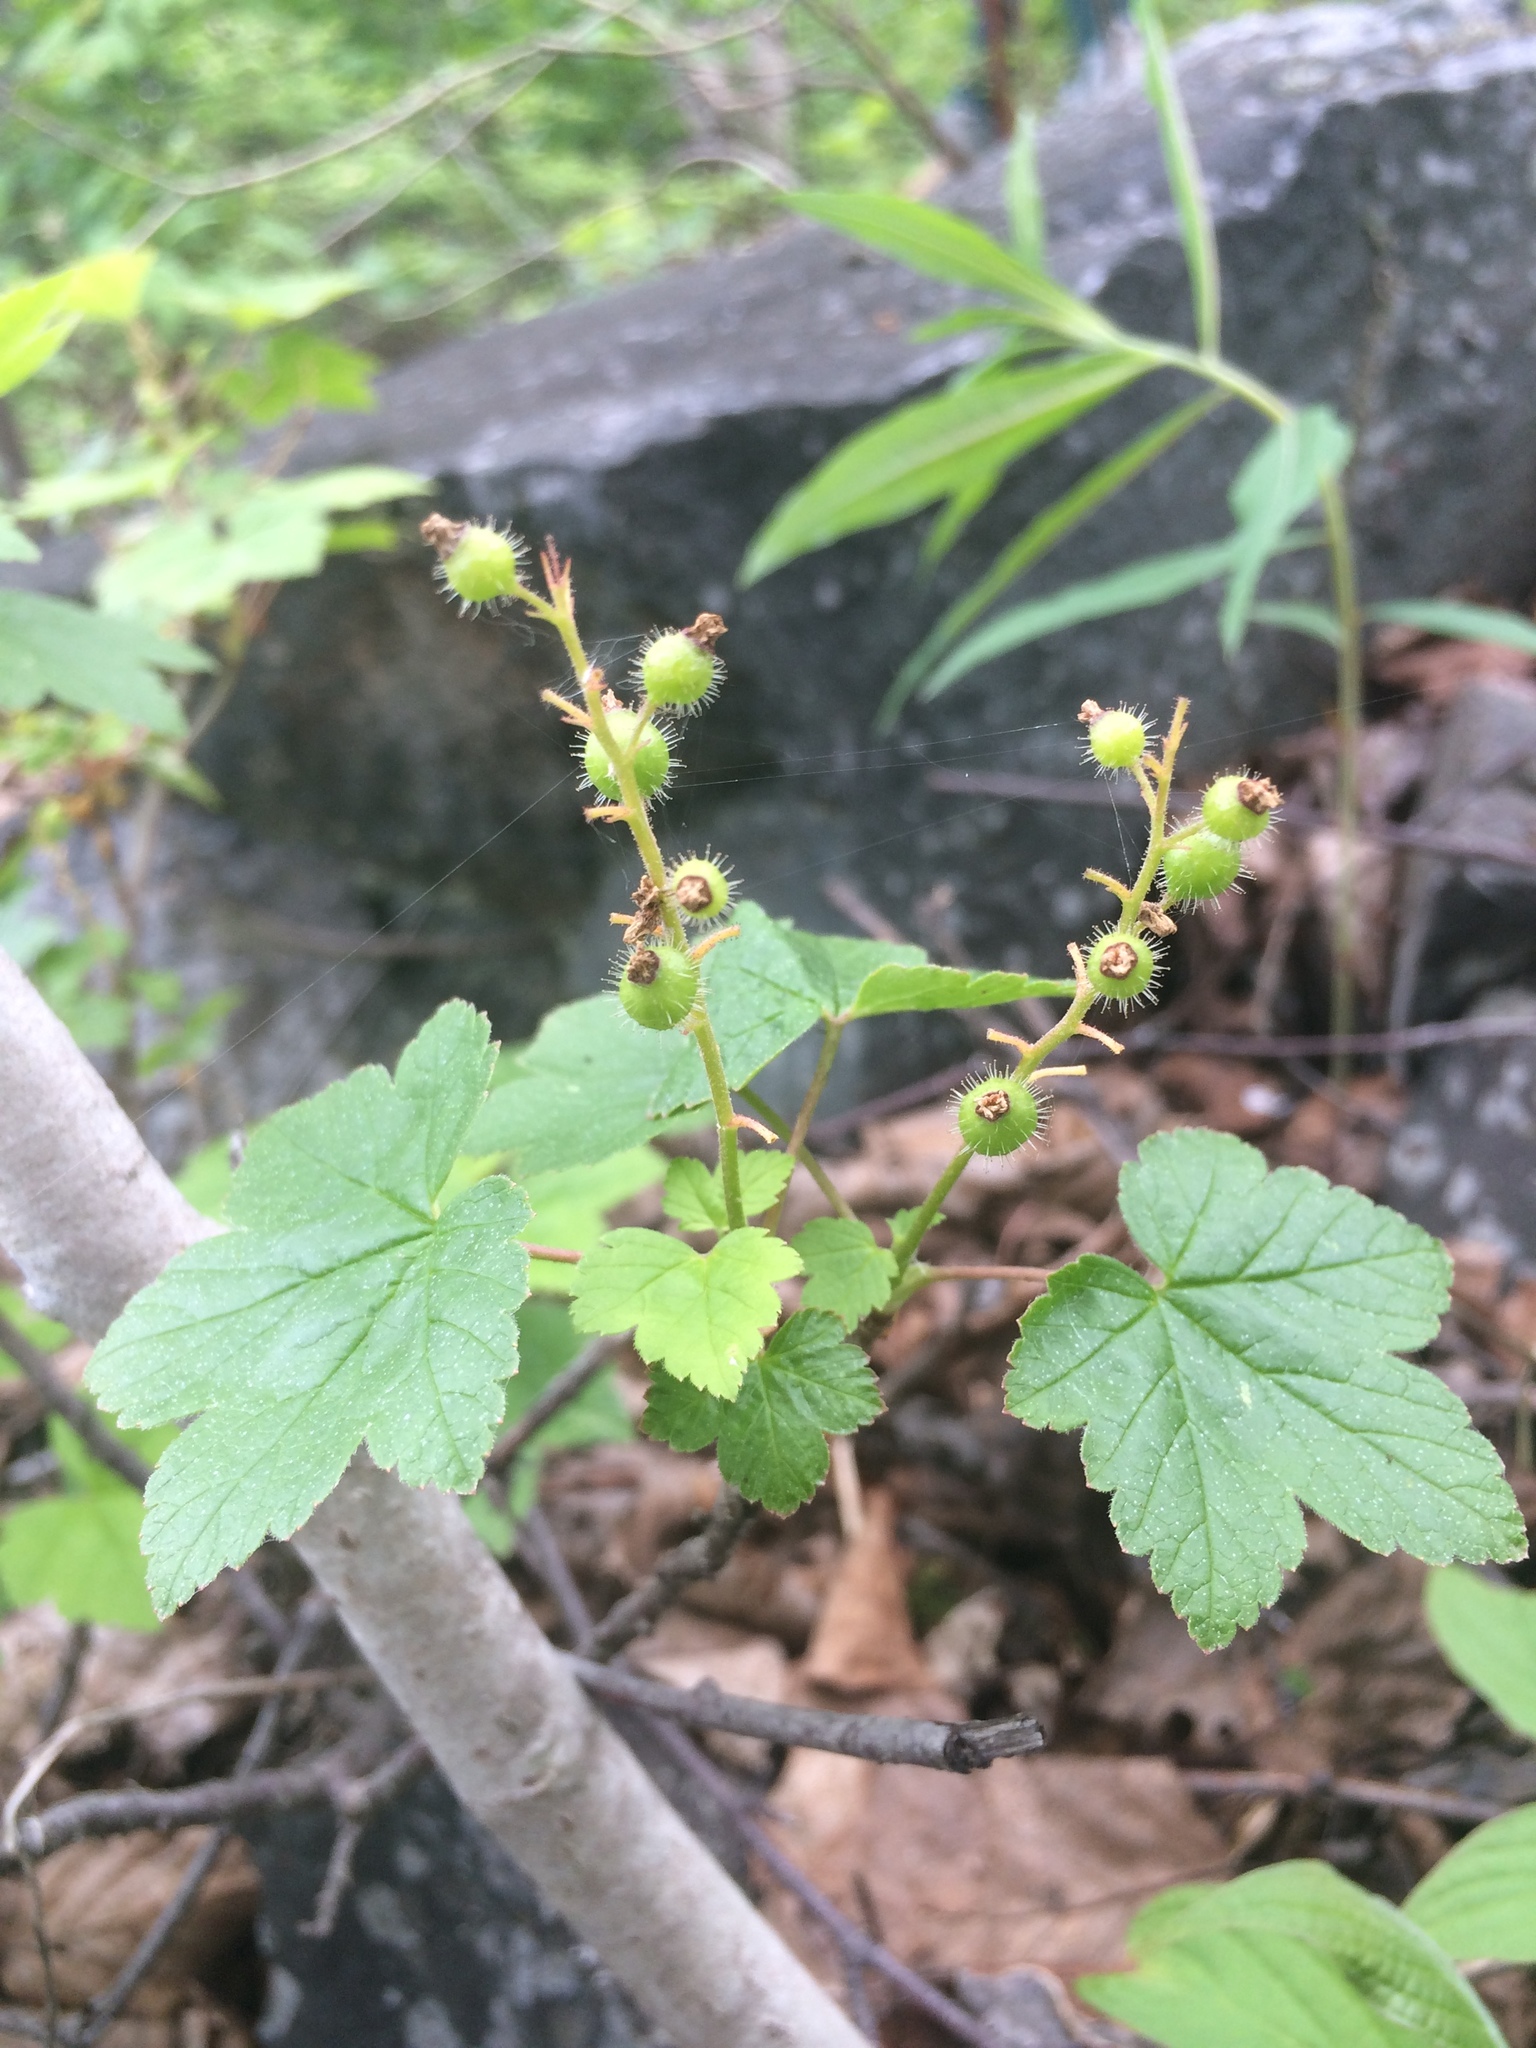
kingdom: Plantae
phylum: Tracheophyta
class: Magnoliopsida
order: Saxifragales
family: Grossulariaceae
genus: Ribes
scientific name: Ribes glandulosum
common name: Skunk currant
